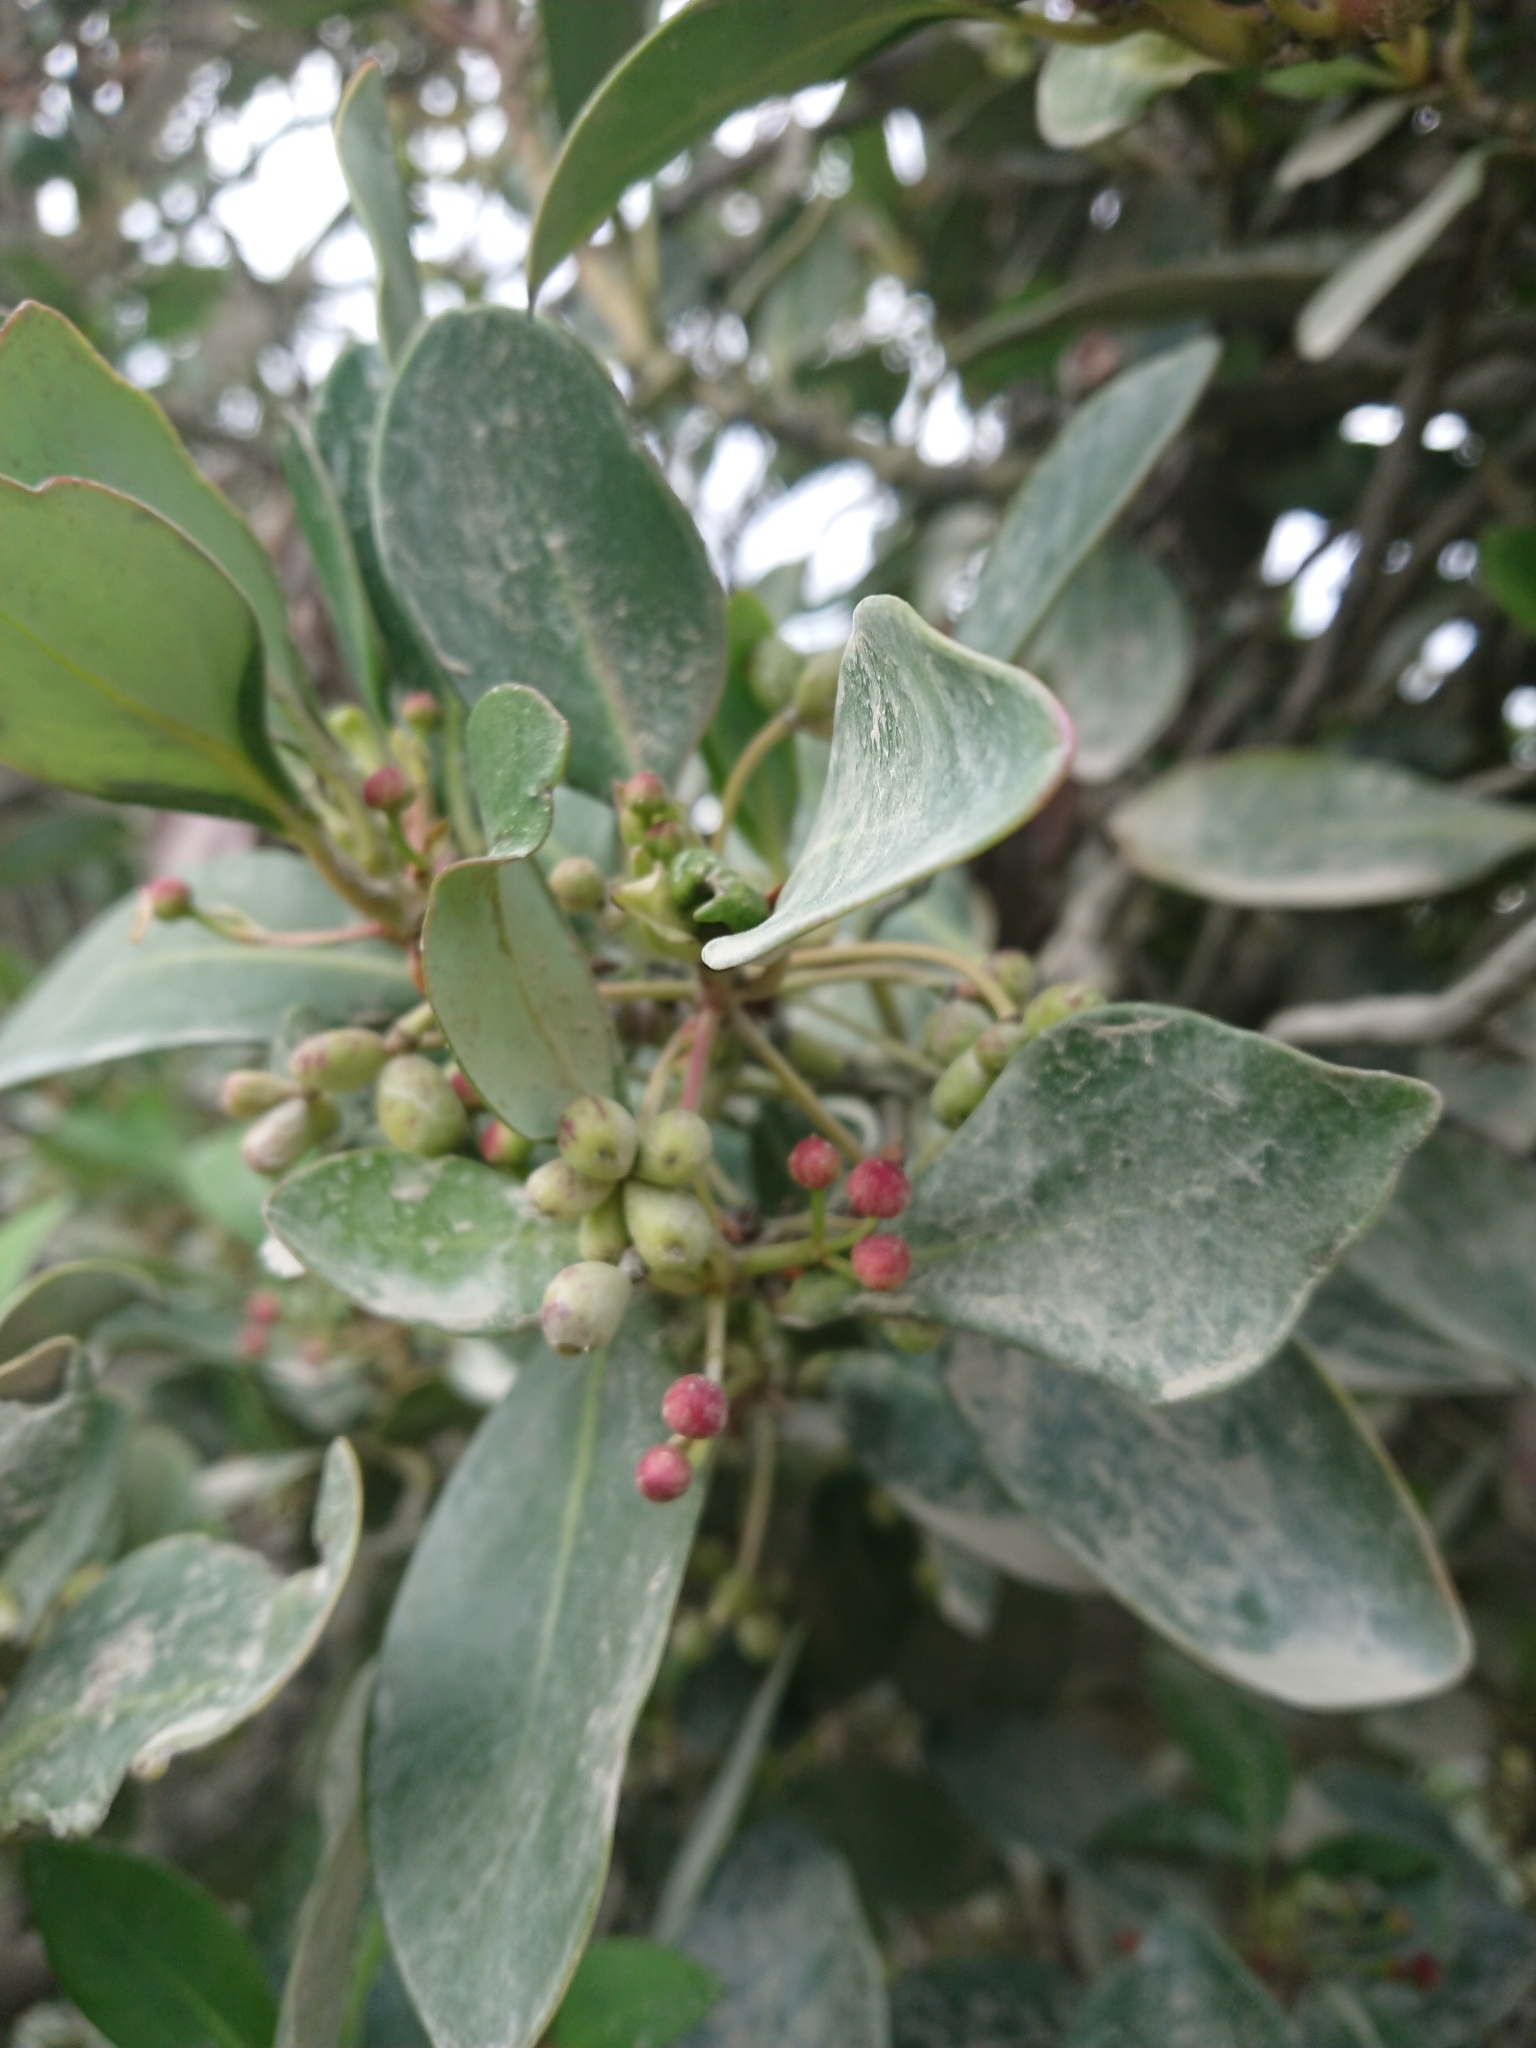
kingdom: Plantae
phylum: Tracheophyta
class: Magnoliopsida
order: Canellales
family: Winteraceae
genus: Drimys
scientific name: Drimys winteri
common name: Winter's-bark
